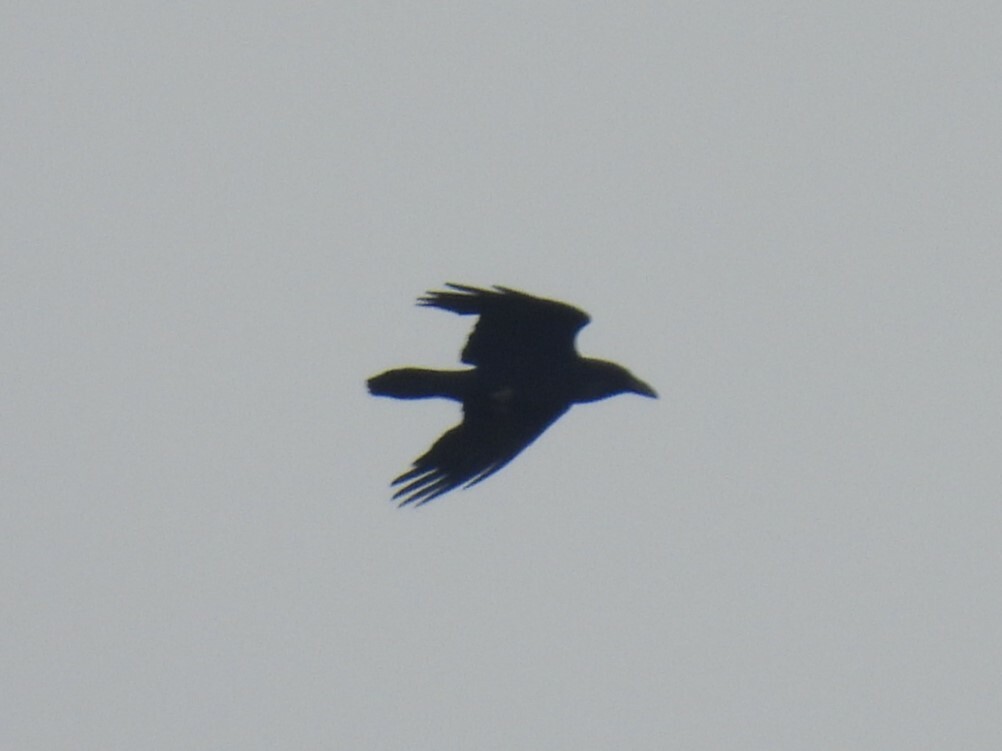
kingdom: Animalia
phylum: Chordata
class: Aves
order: Passeriformes
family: Corvidae
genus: Corvus
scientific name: Corvus corax
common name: Common raven
